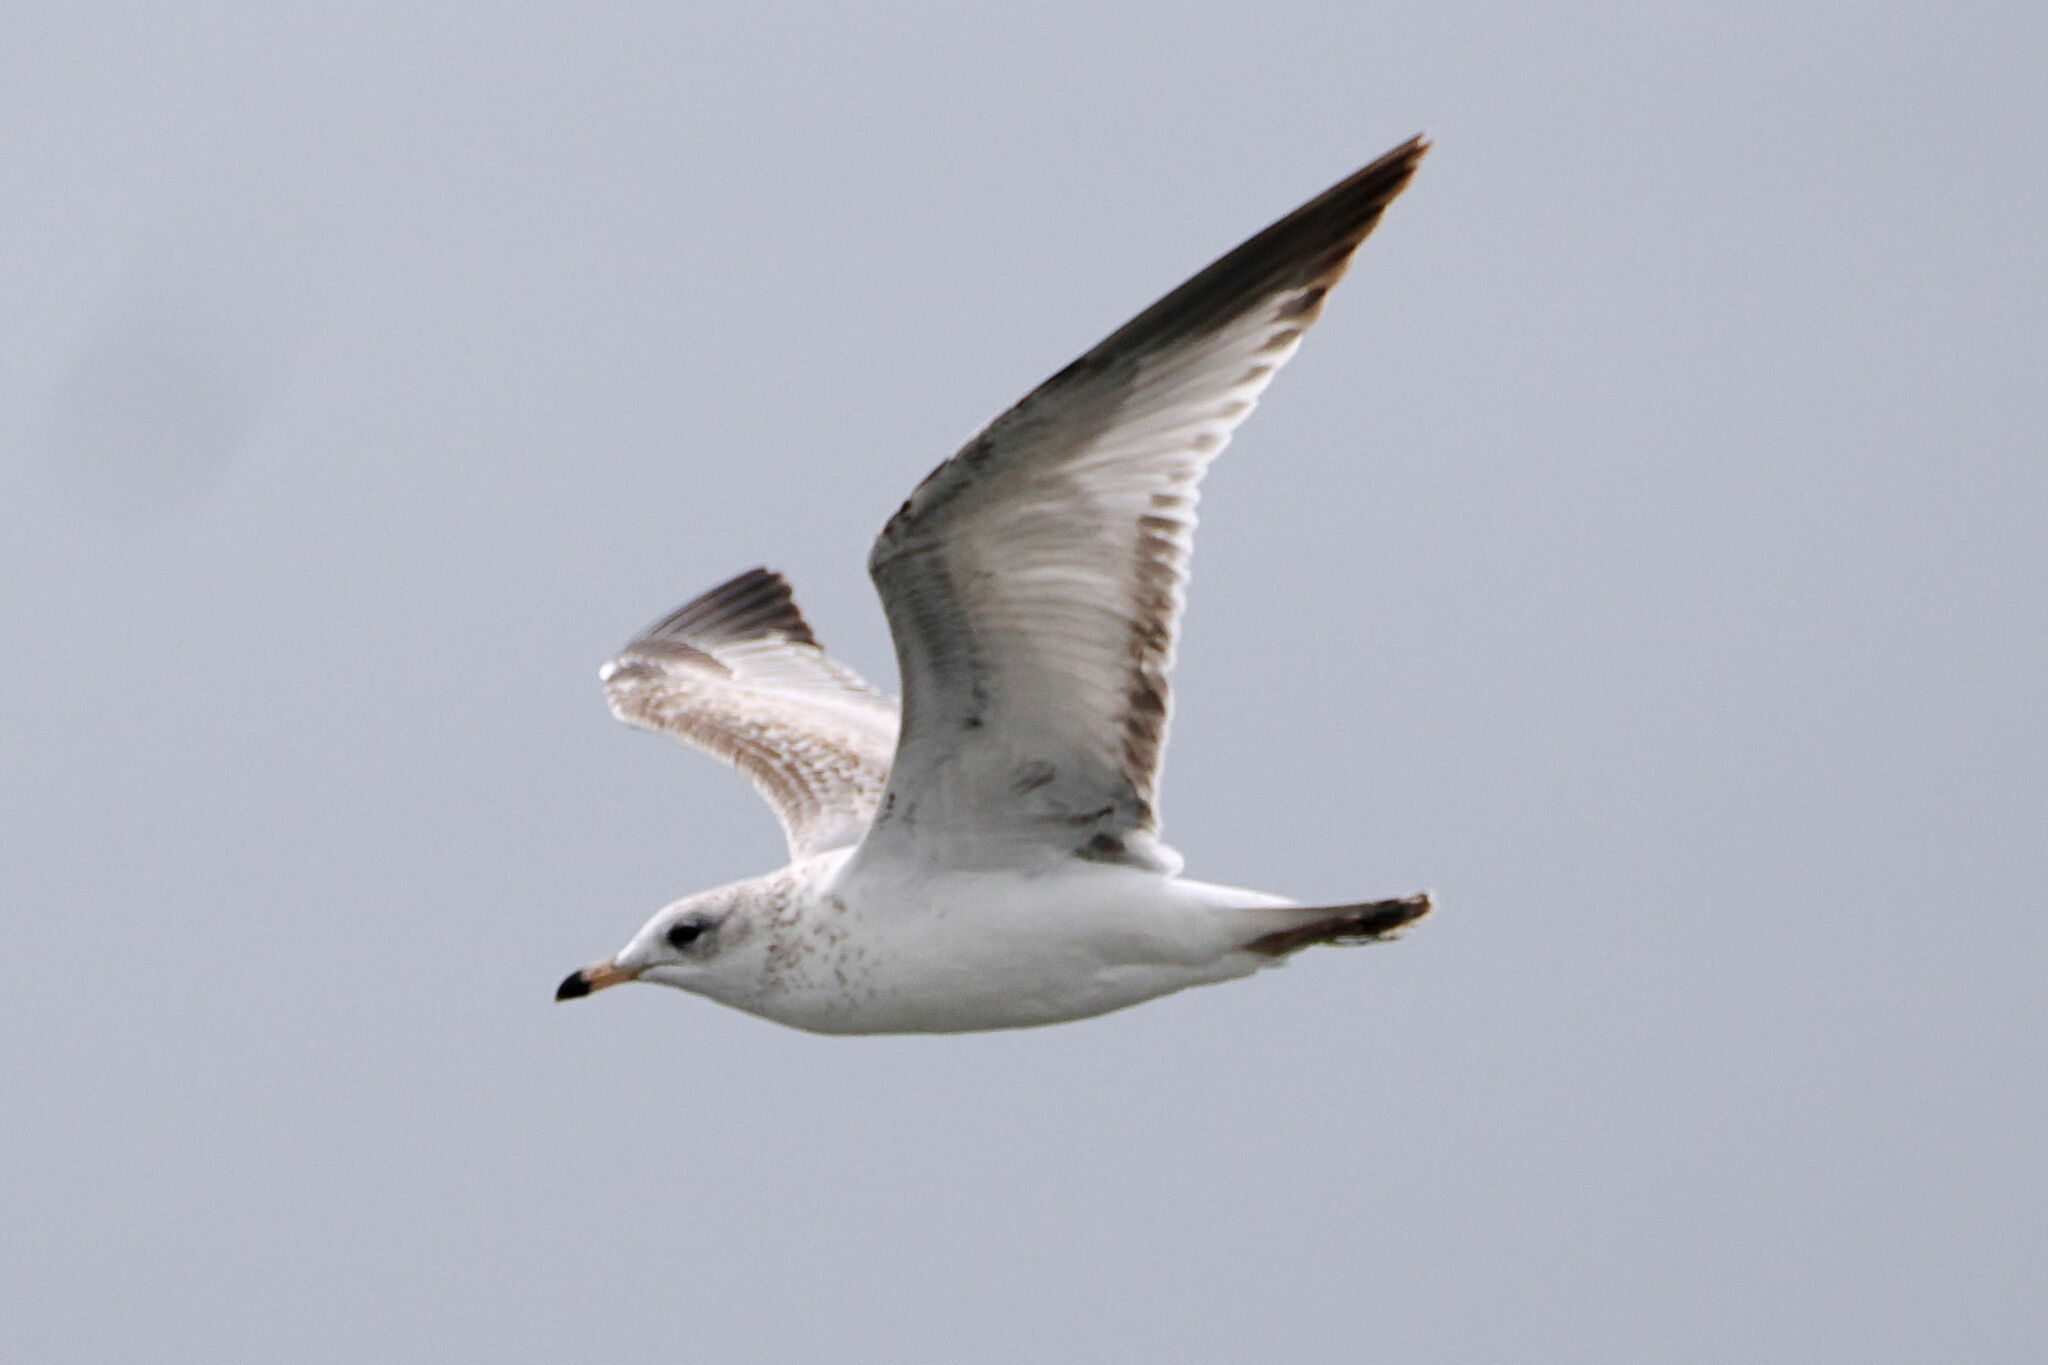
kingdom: Animalia
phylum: Chordata
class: Aves
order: Charadriiformes
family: Laridae
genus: Larus
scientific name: Larus delawarensis
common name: Ring-billed gull
